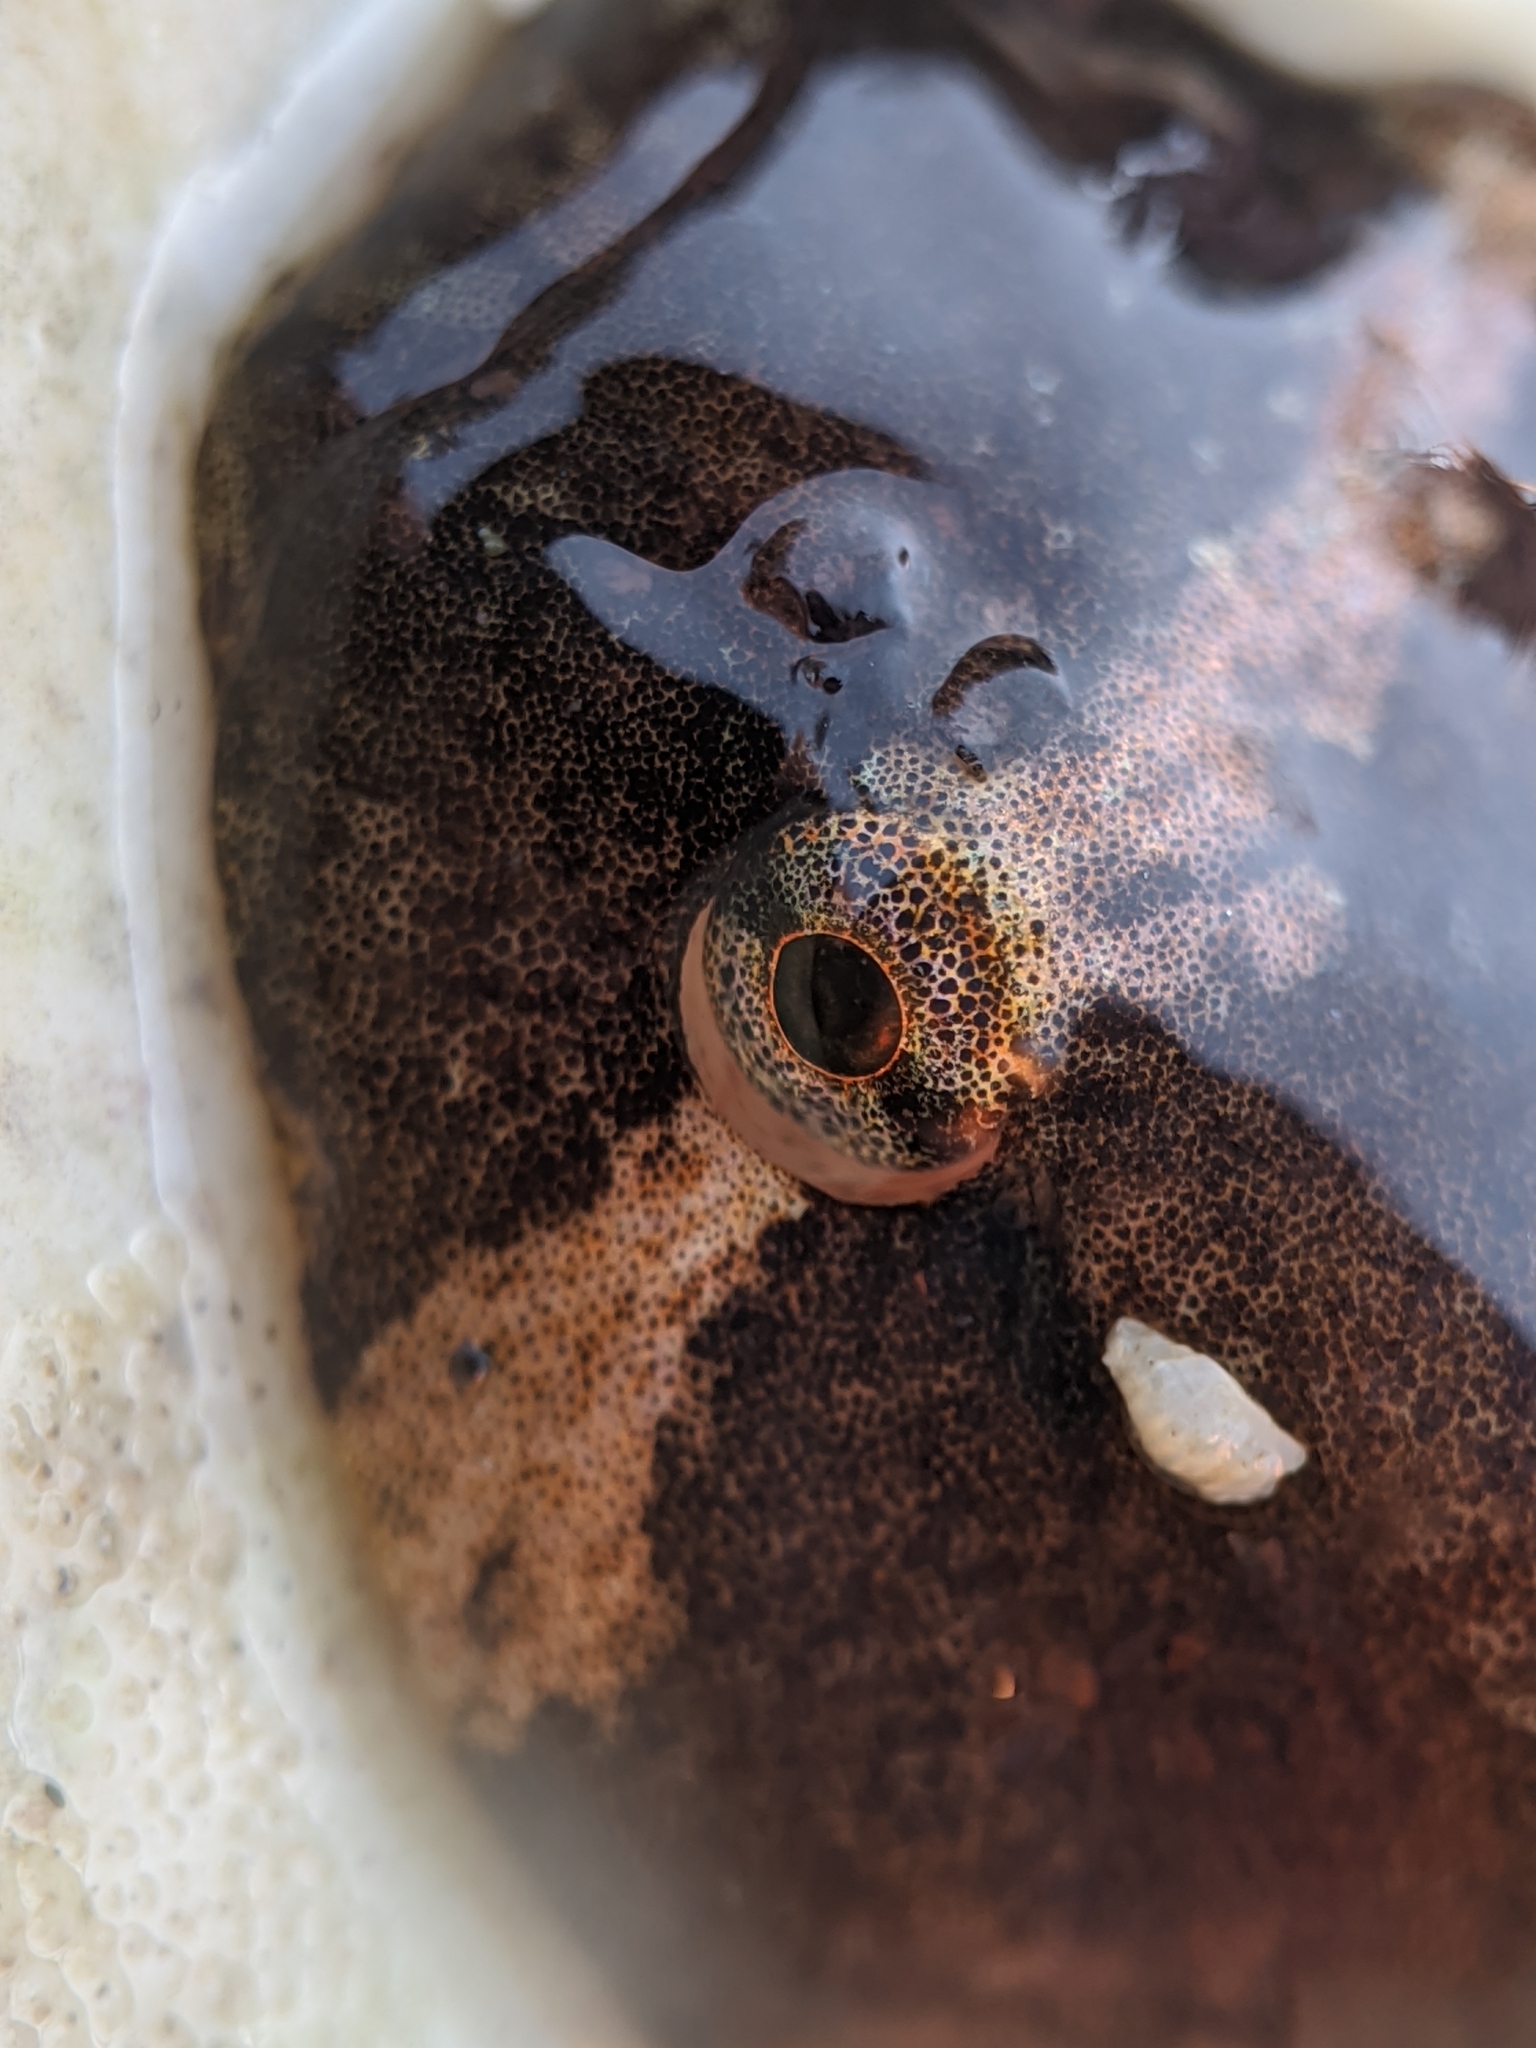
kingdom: Animalia
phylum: Chordata
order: Gobiesociformes
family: Gobiesocidae
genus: Gobiesox
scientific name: Gobiesox rhessodon
